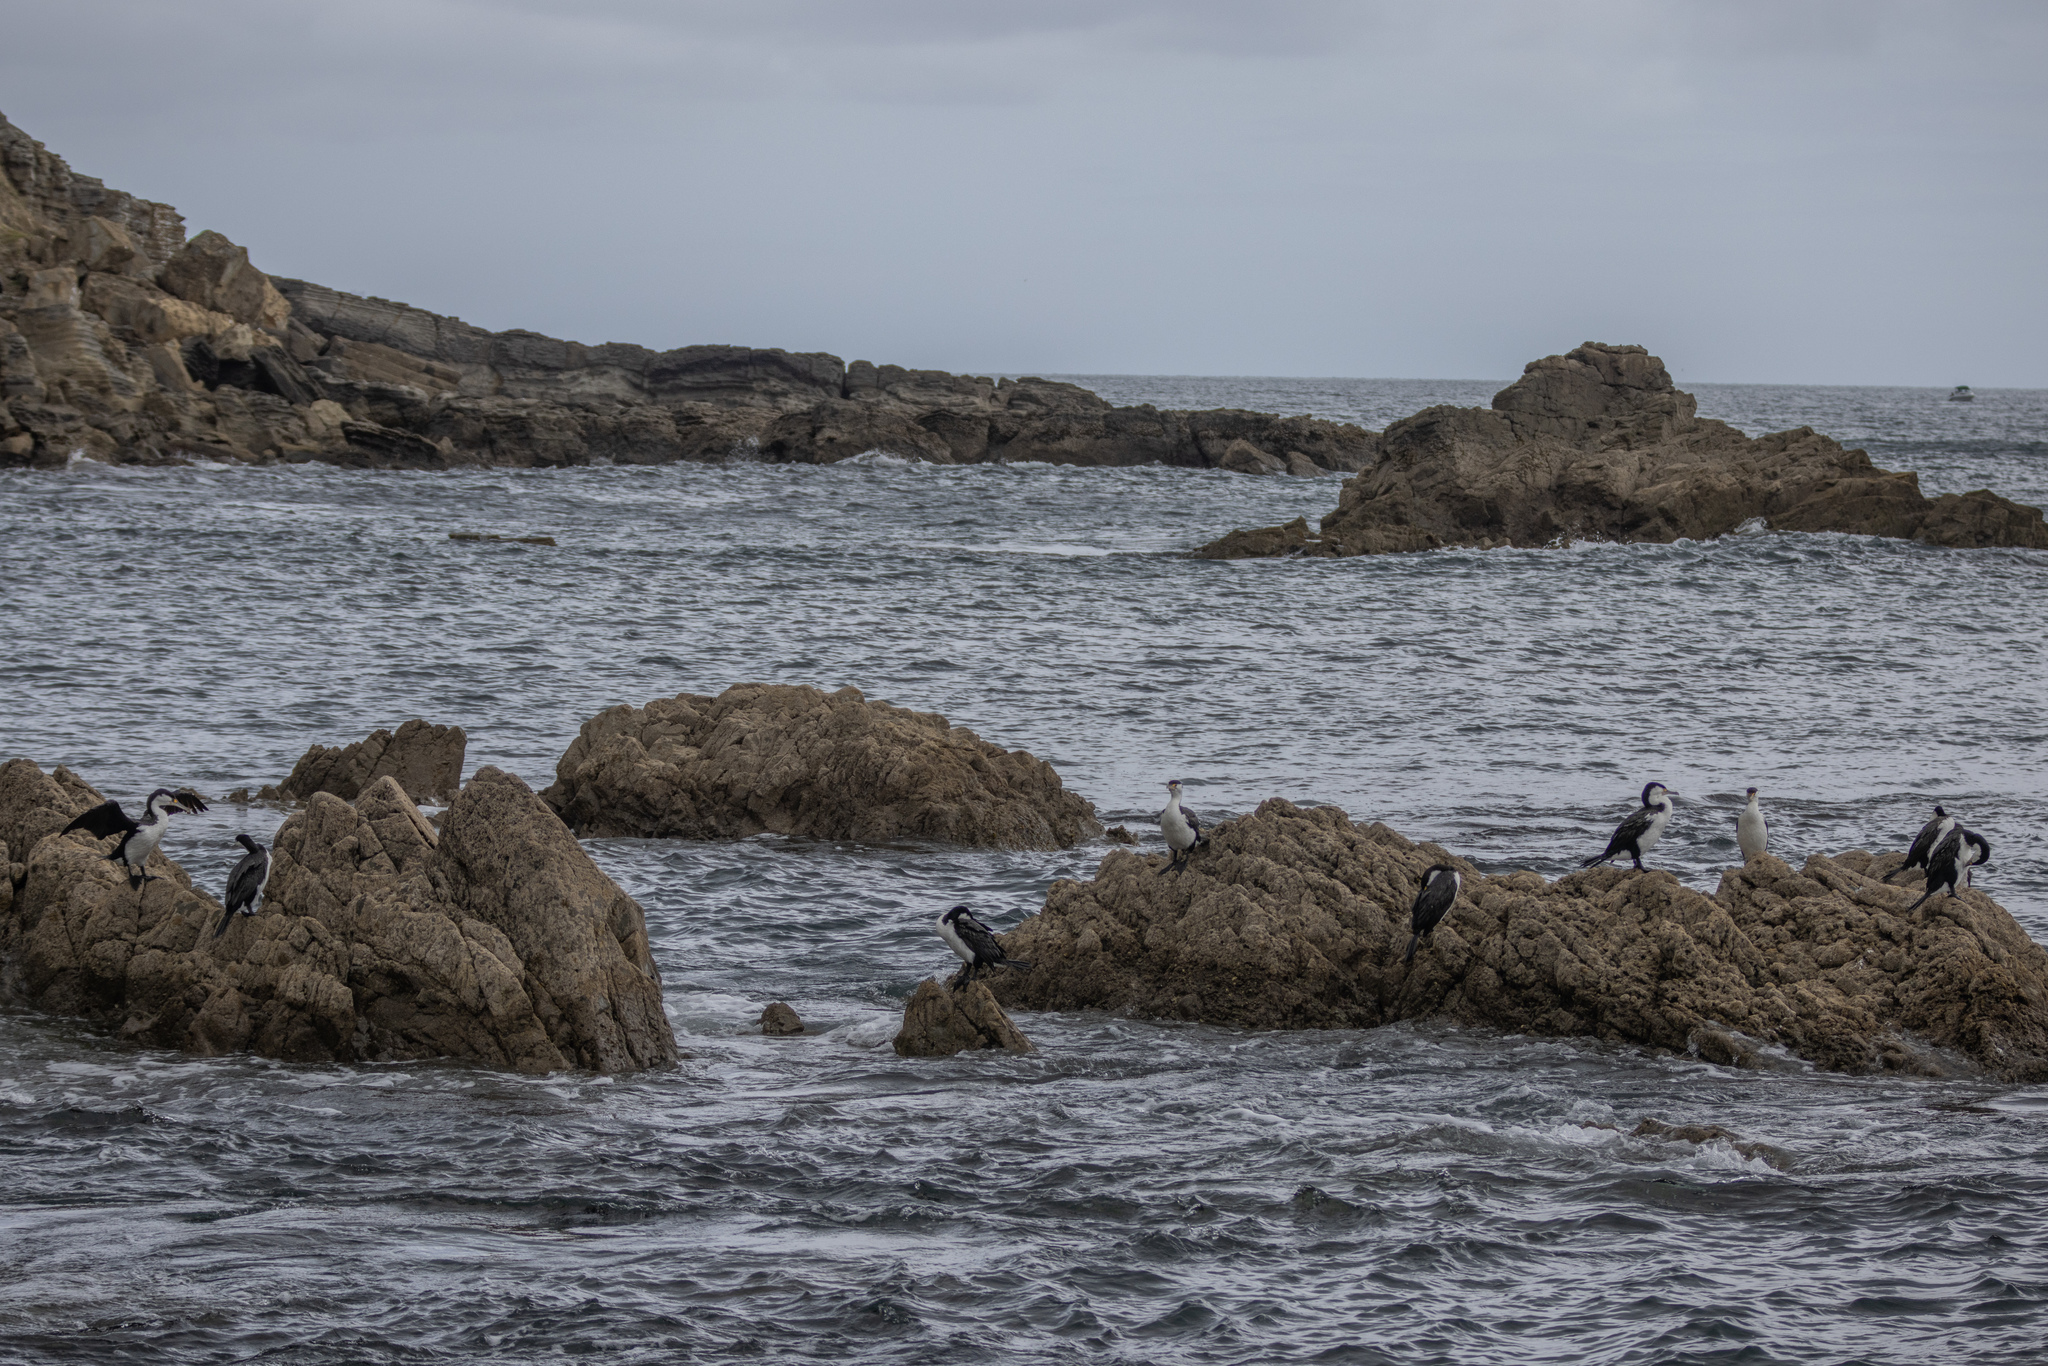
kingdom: Animalia
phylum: Chordata
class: Aves
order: Suliformes
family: Phalacrocoracidae
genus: Phalacrocorax
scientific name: Phalacrocorax varius
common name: Pied cormorant
